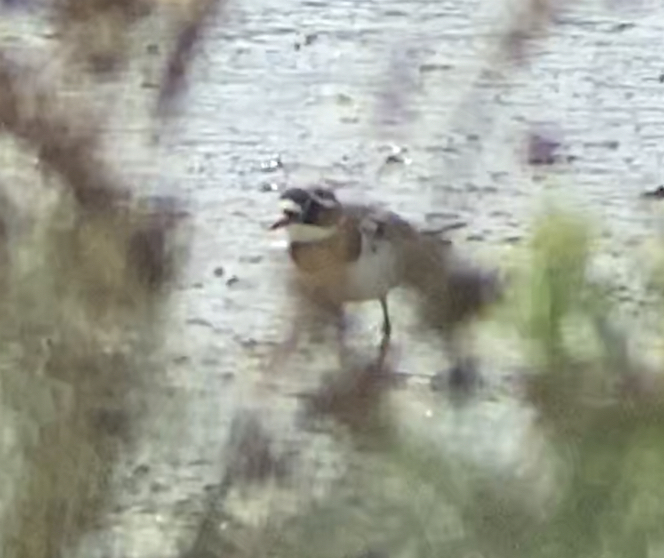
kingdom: Animalia
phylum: Chordata
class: Aves
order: Charadriiformes
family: Charadriidae
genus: Charadrius
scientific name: Charadrius hiaticula
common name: Common ringed plover
